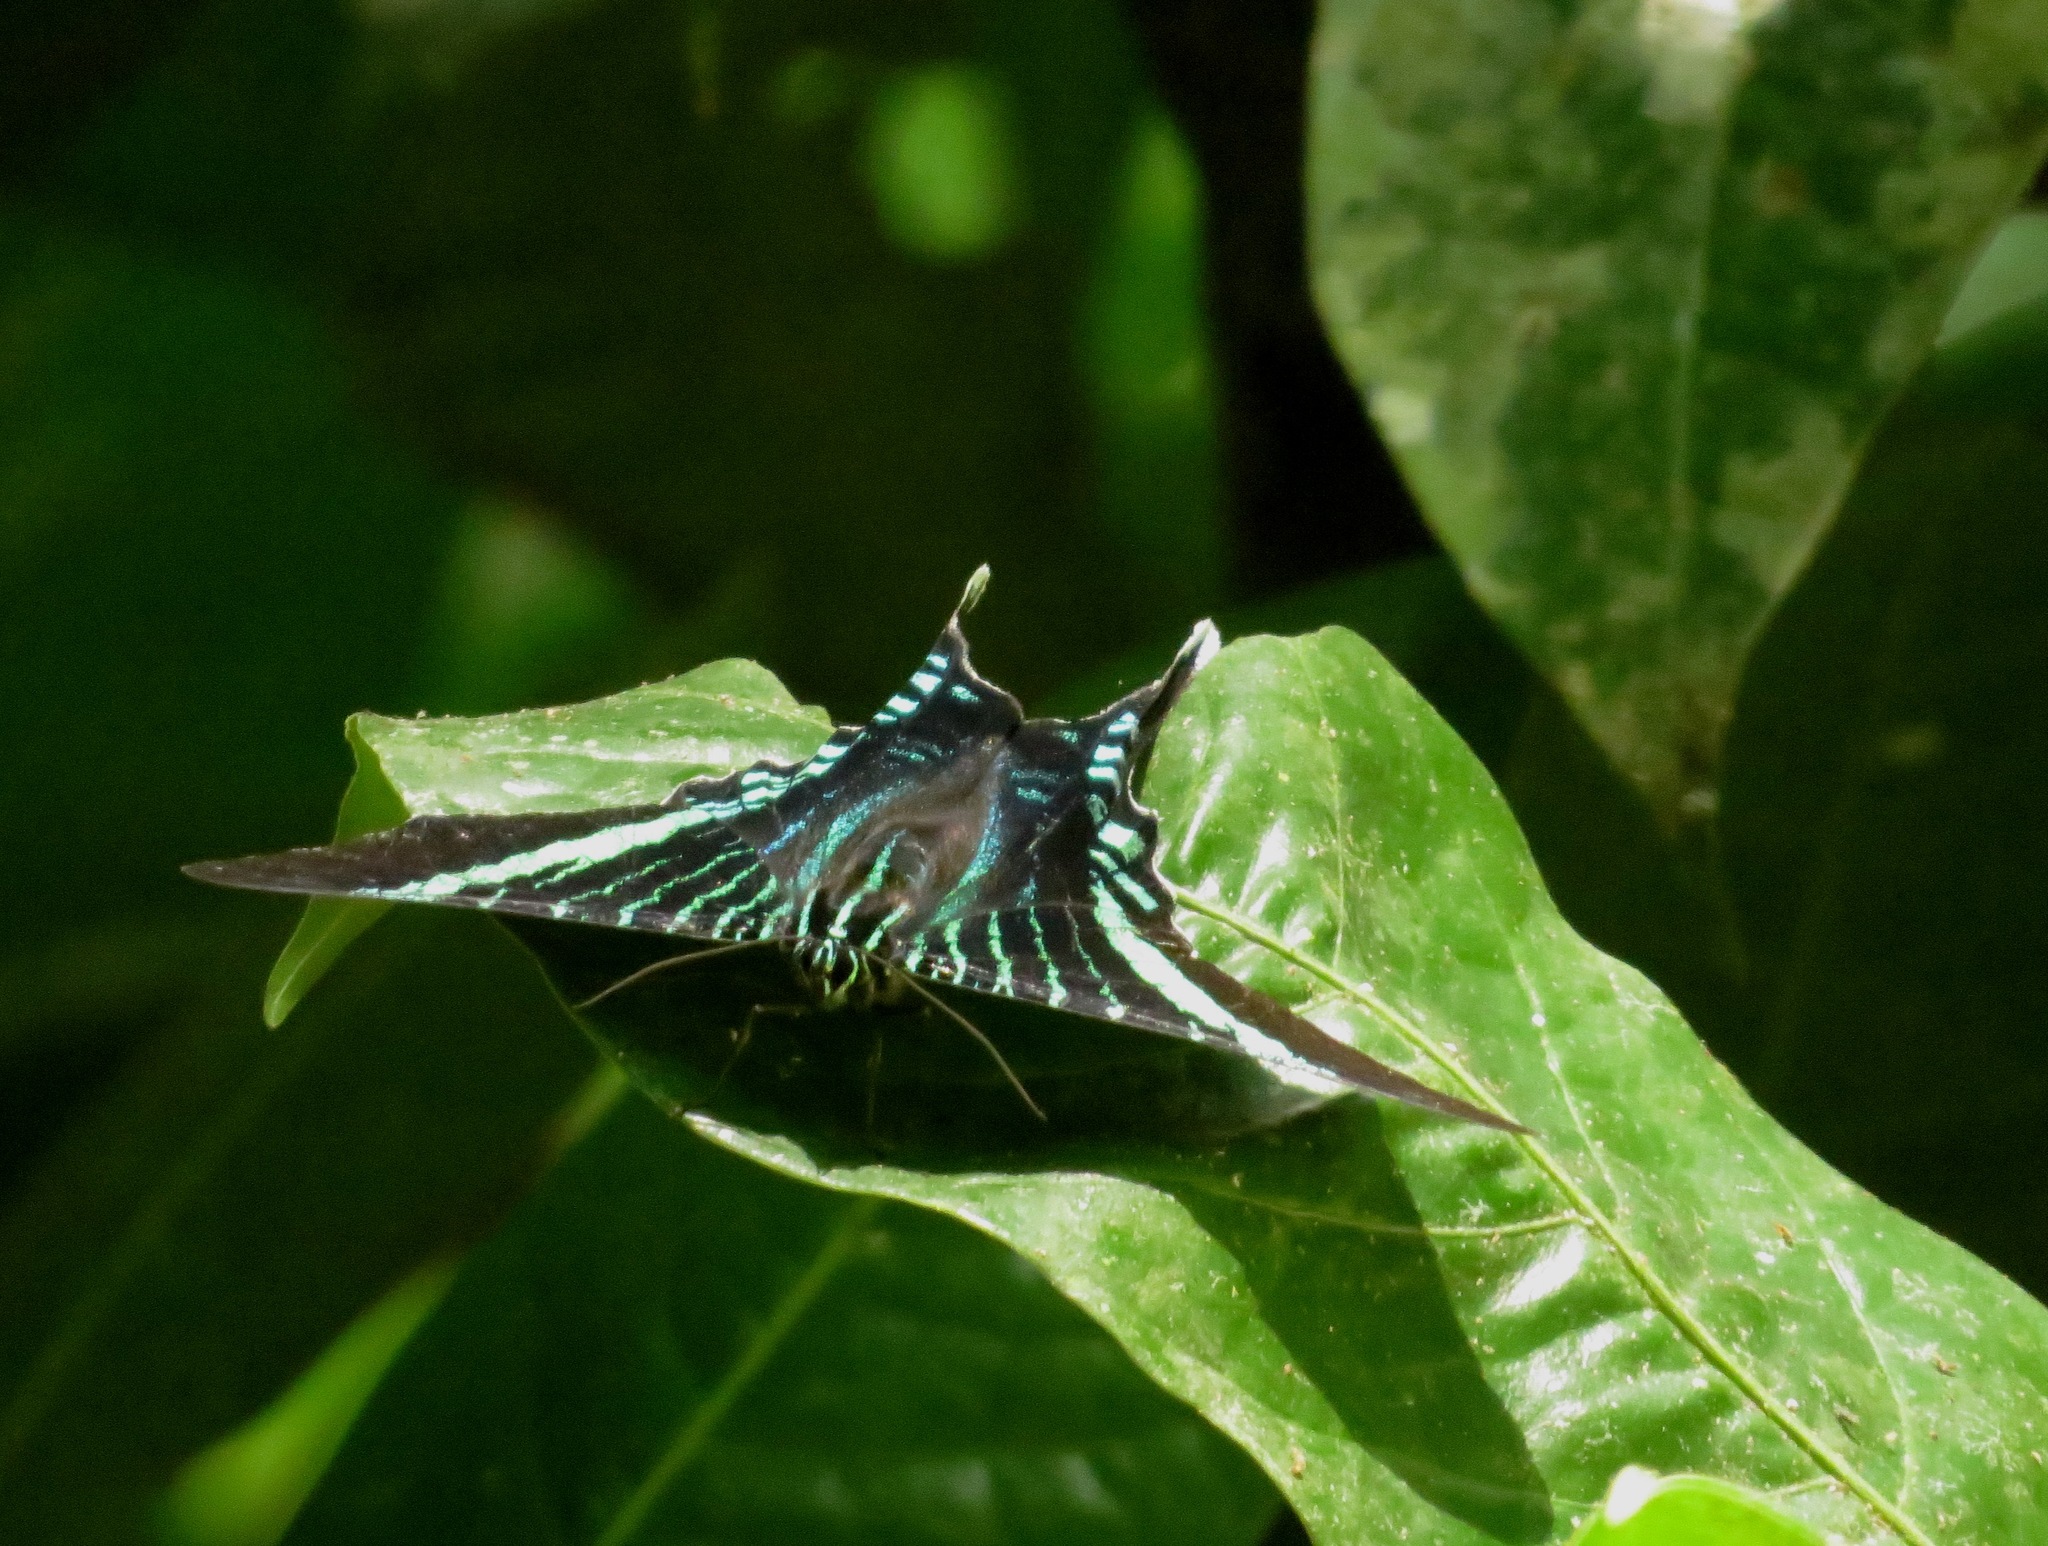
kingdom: Animalia
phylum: Arthropoda
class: Insecta
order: Lepidoptera
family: Uraniidae
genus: Urania
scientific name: Urania fulgens
